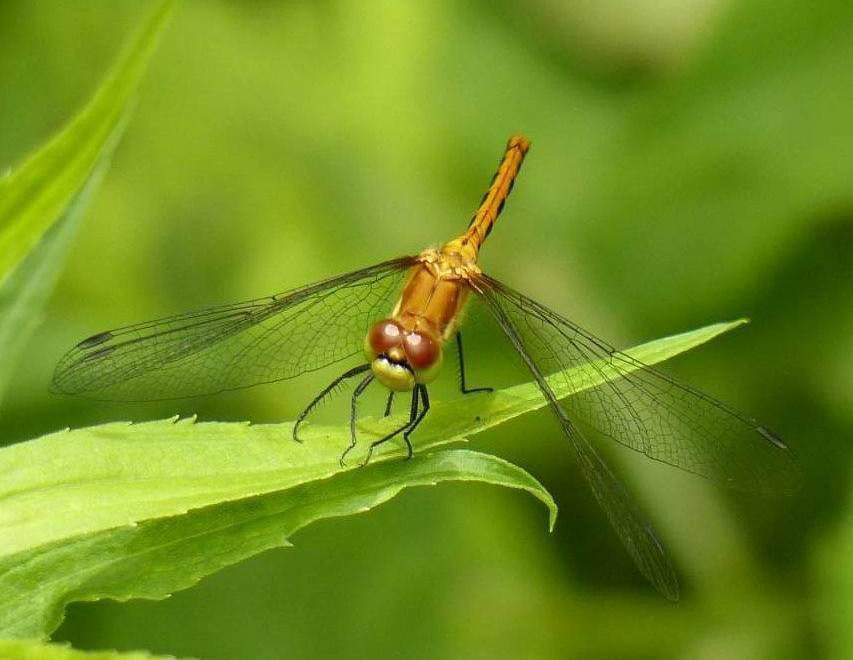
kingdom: Animalia
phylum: Arthropoda
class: Insecta
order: Odonata
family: Libellulidae
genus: Sympetrum
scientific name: Sympetrum obtrusum
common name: White-faced meadowhawk
